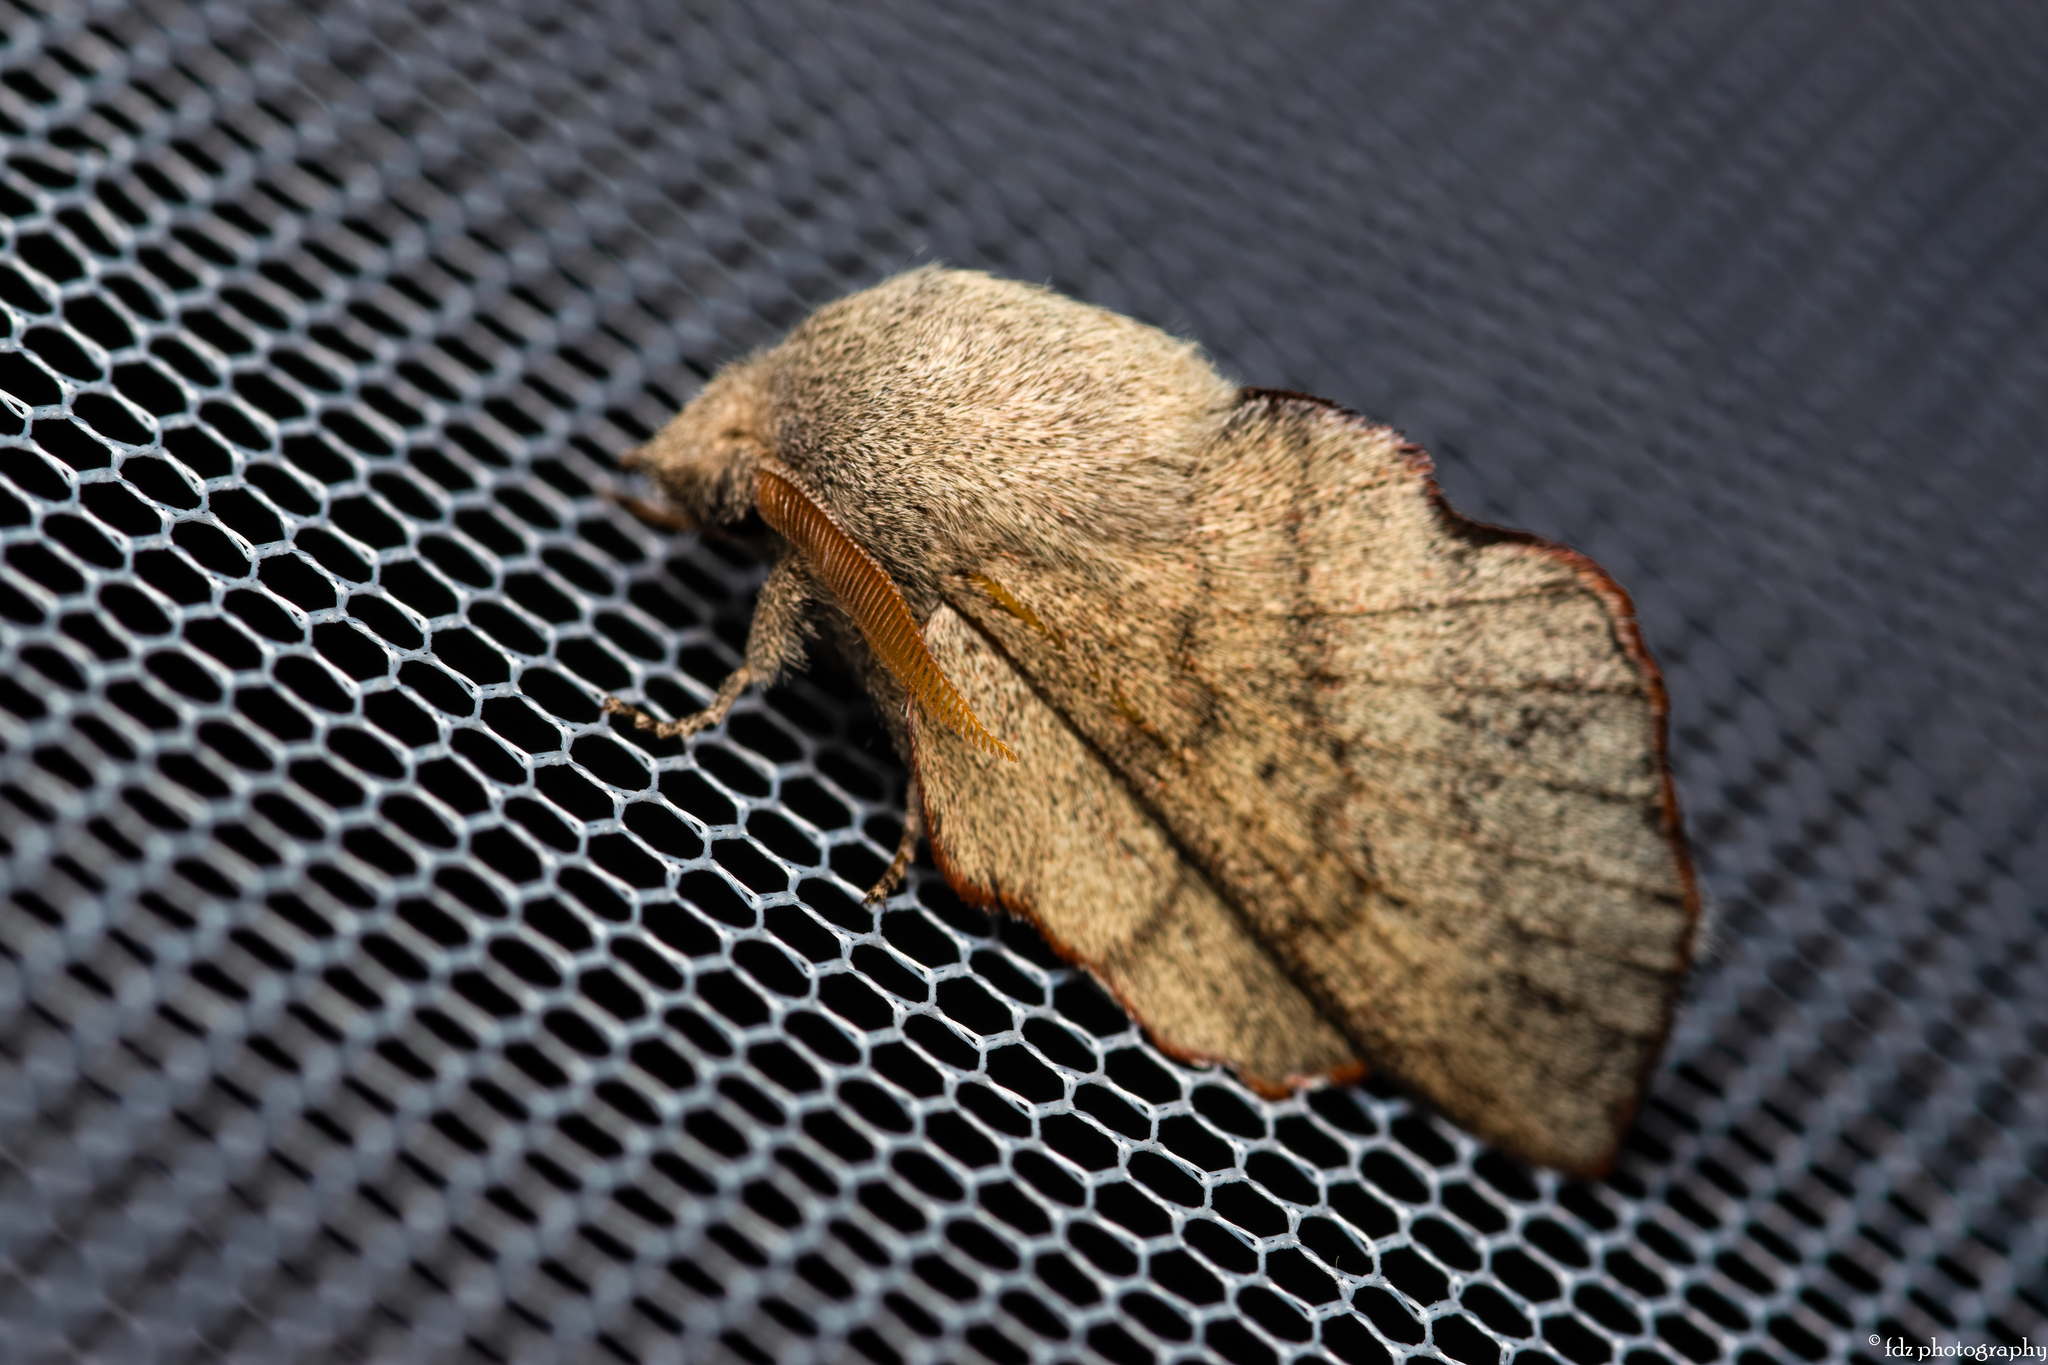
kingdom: Animalia
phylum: Arthropoda
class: Insecta
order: Lepidoptera
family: Lasiocampidae
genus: Phyllodesma
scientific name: Phyllodesma suberifolia
